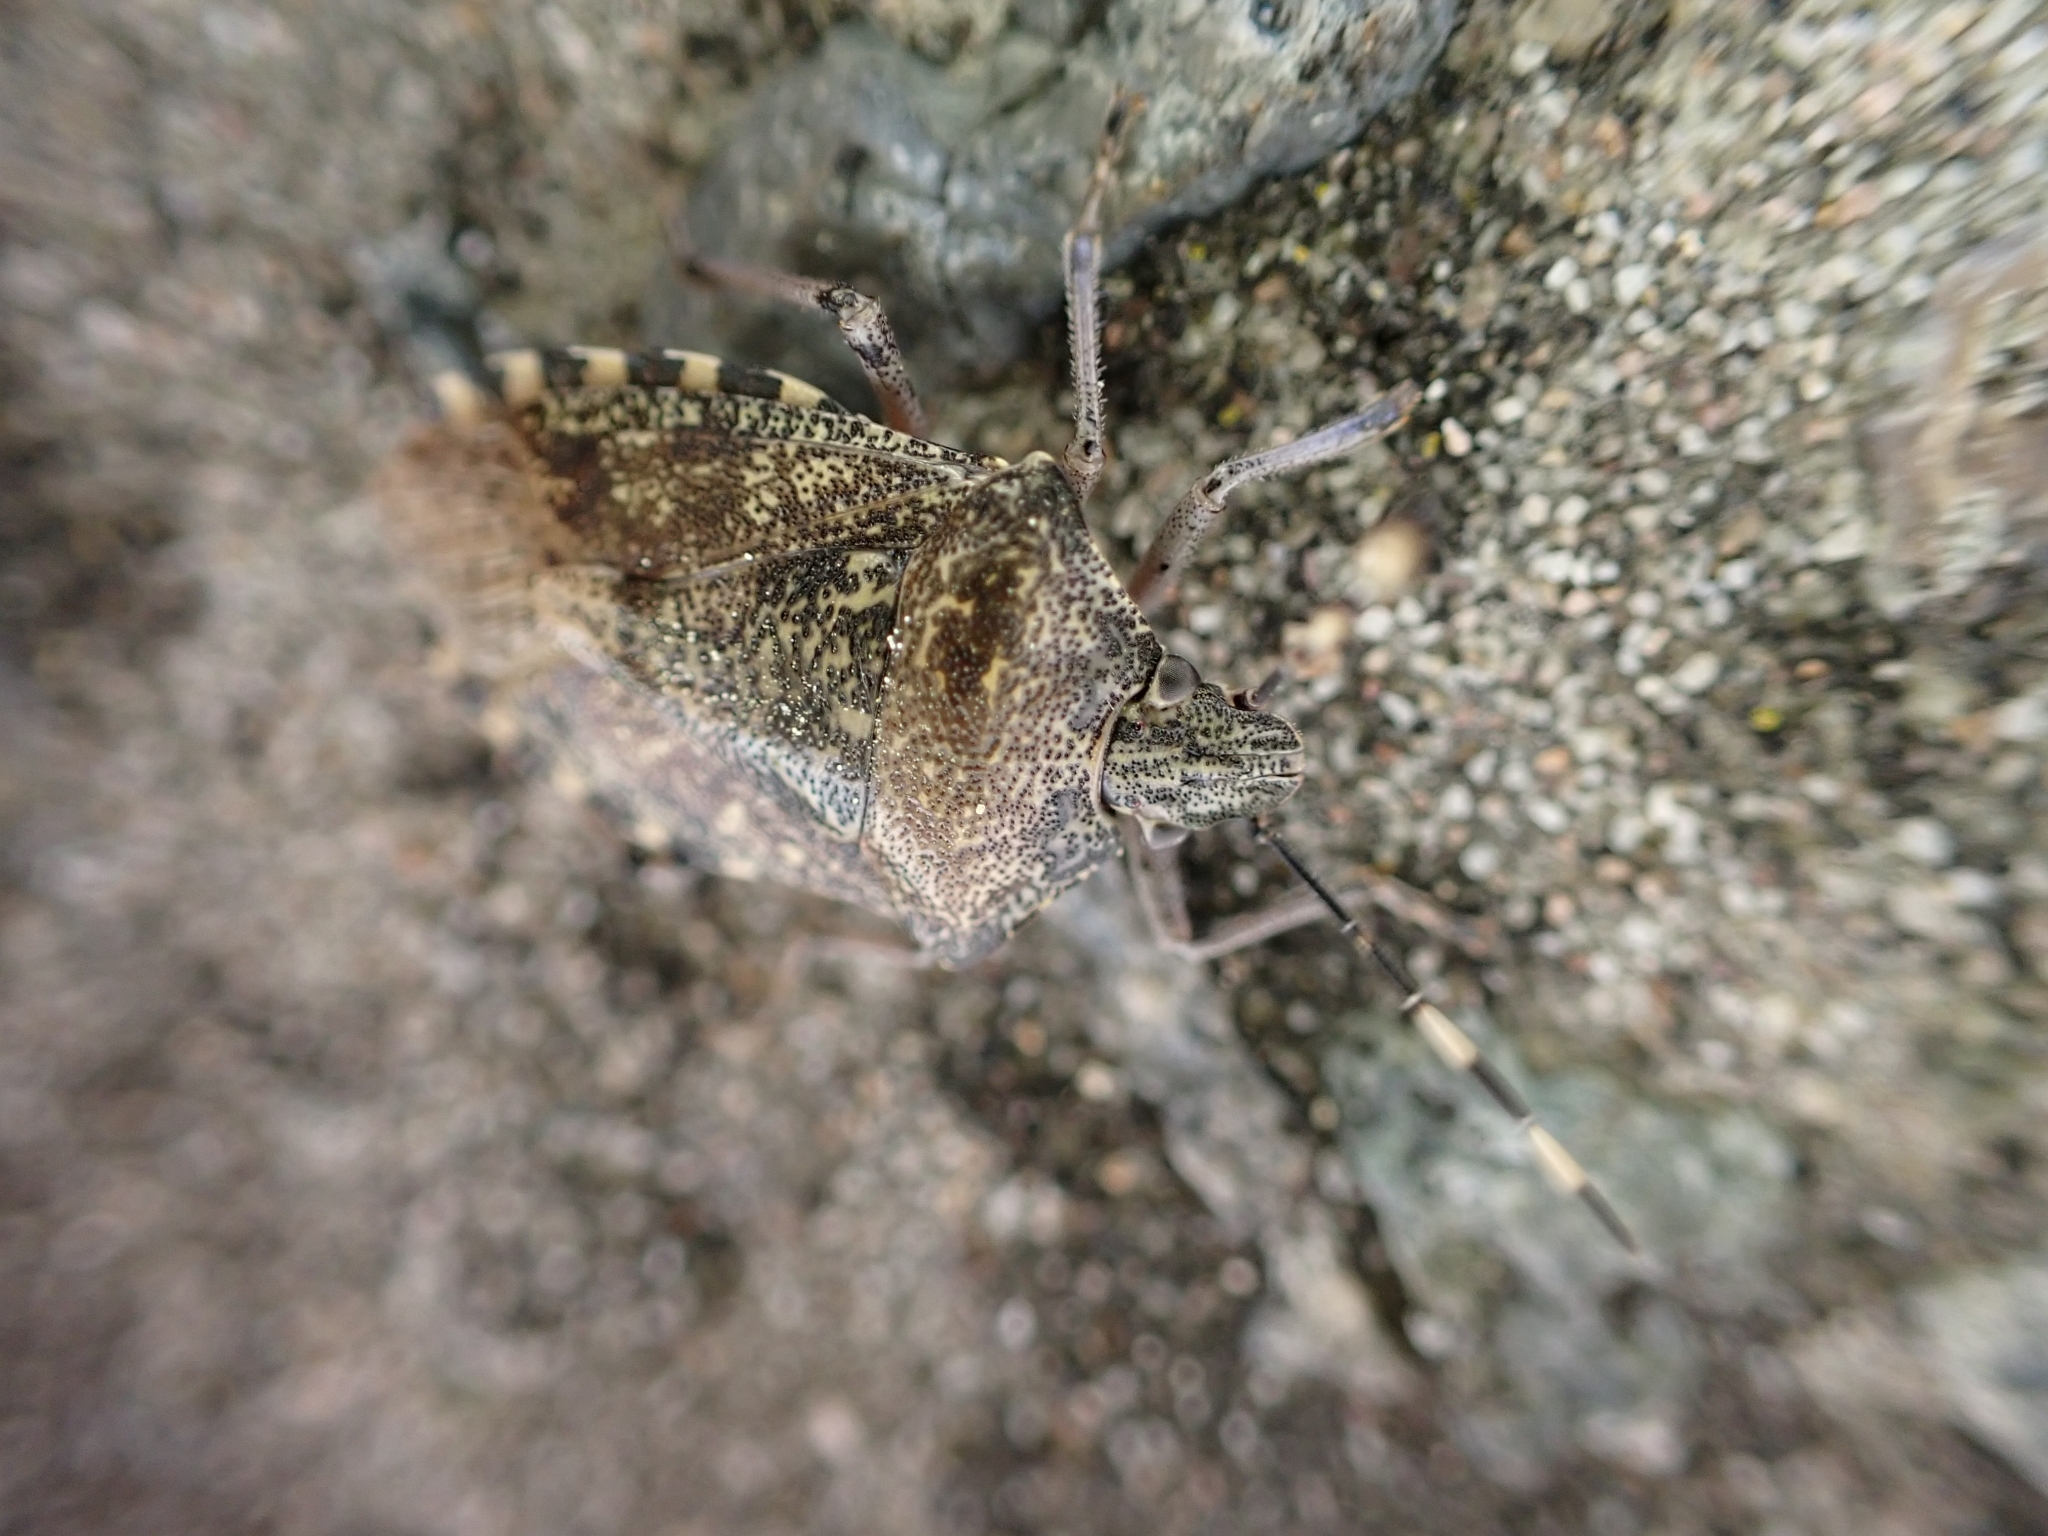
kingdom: Animalia
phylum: Arthropoda
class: Insecta
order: Hemiptera
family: Pentatomidae
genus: Rhaphigaster
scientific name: Rhaphigaster nebulosa
